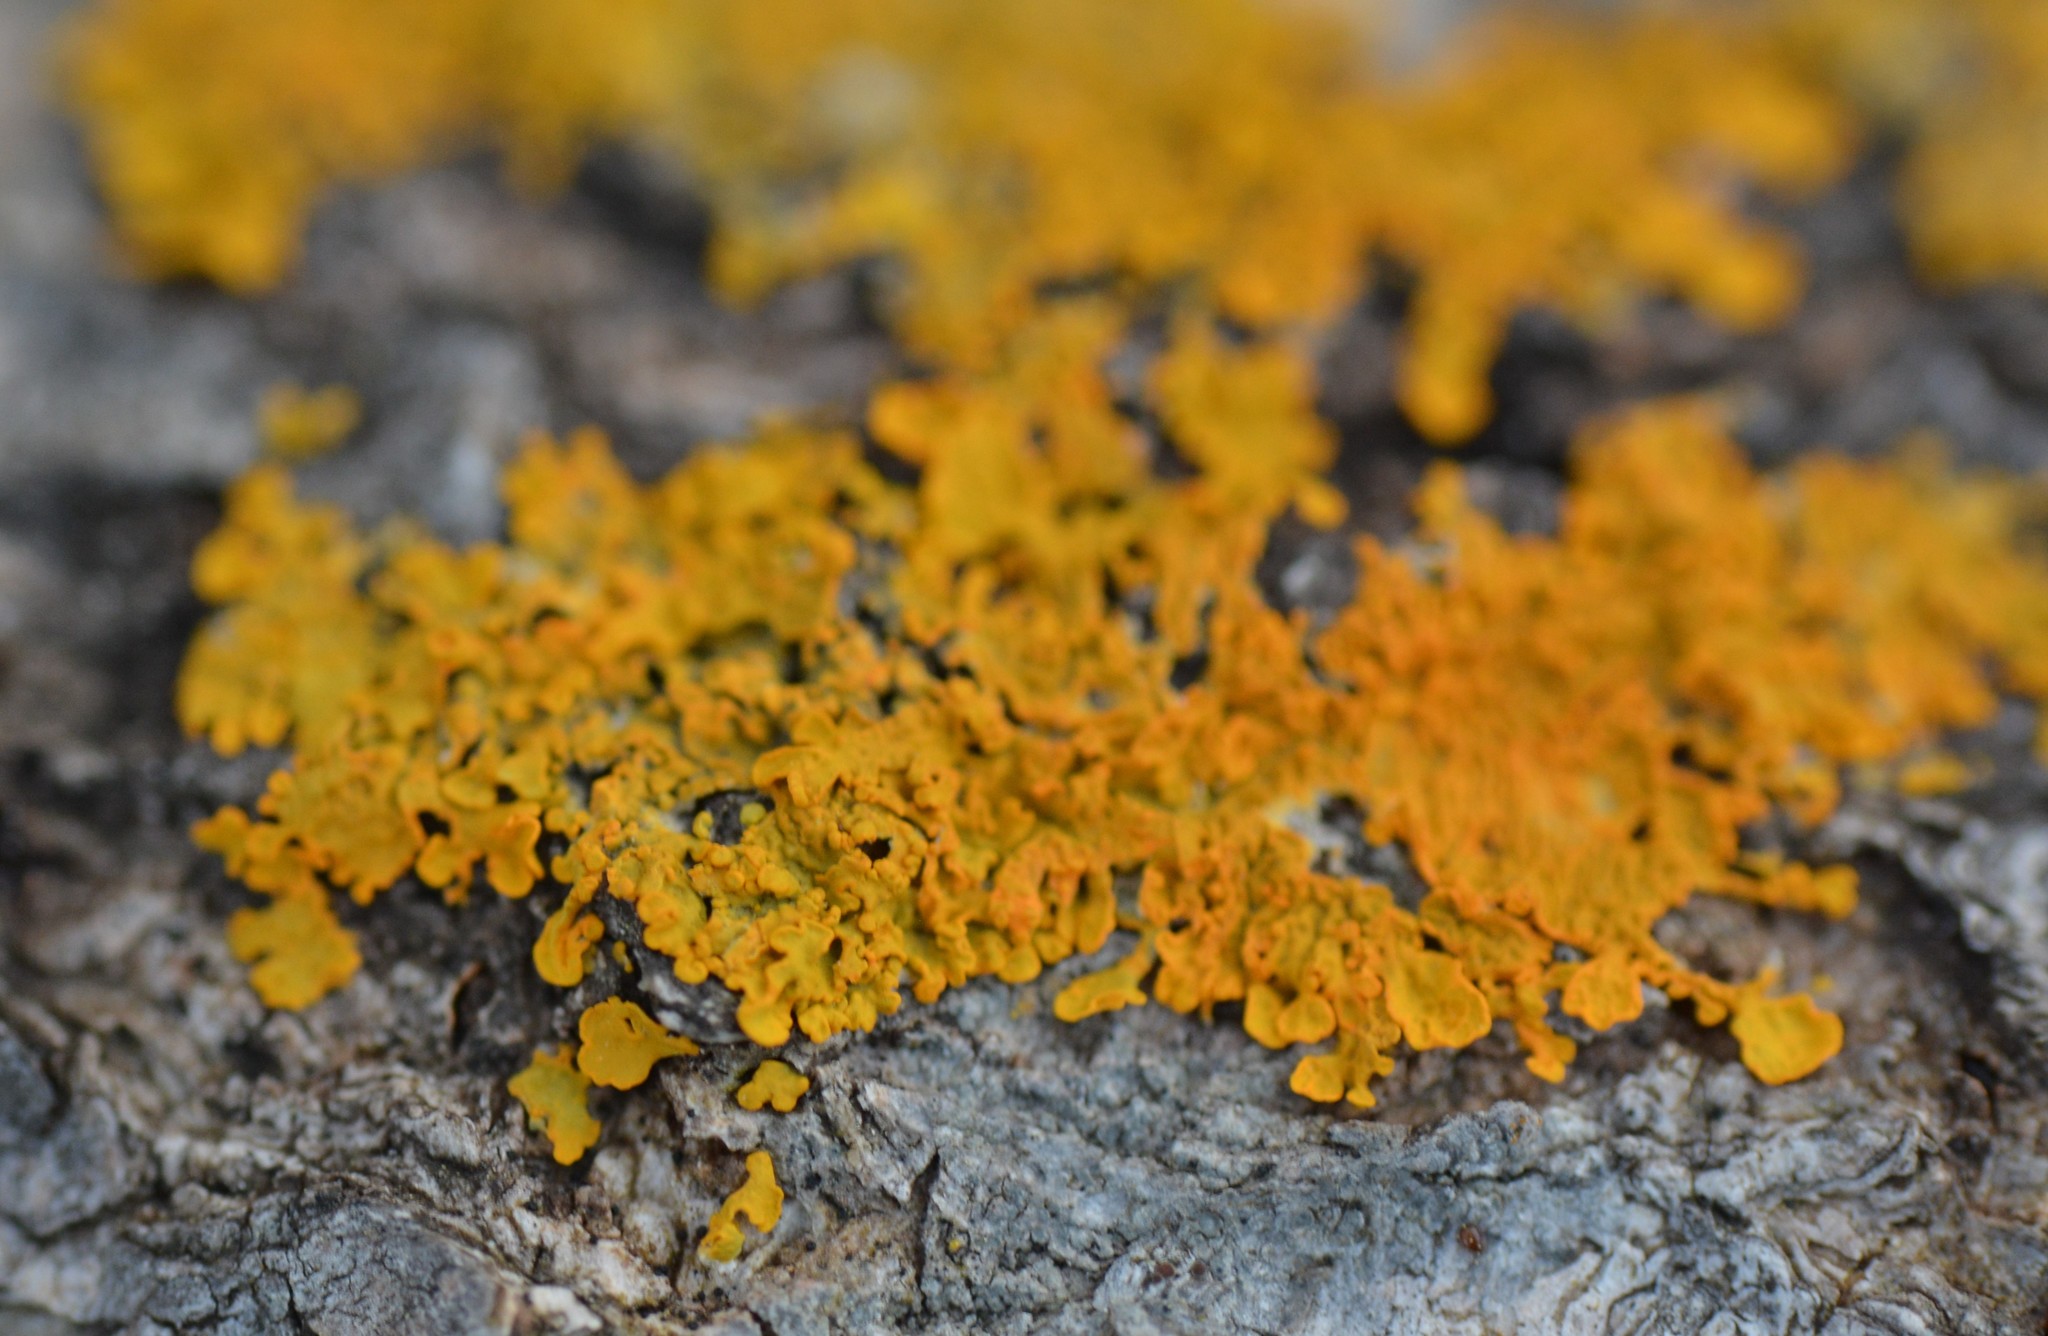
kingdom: Fungi
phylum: Ascomycota
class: Lecanoromycetes
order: Teloschistales
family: Teloschistaceae
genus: Xanthoria
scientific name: Xanthoria parietina
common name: Common orange lichen
